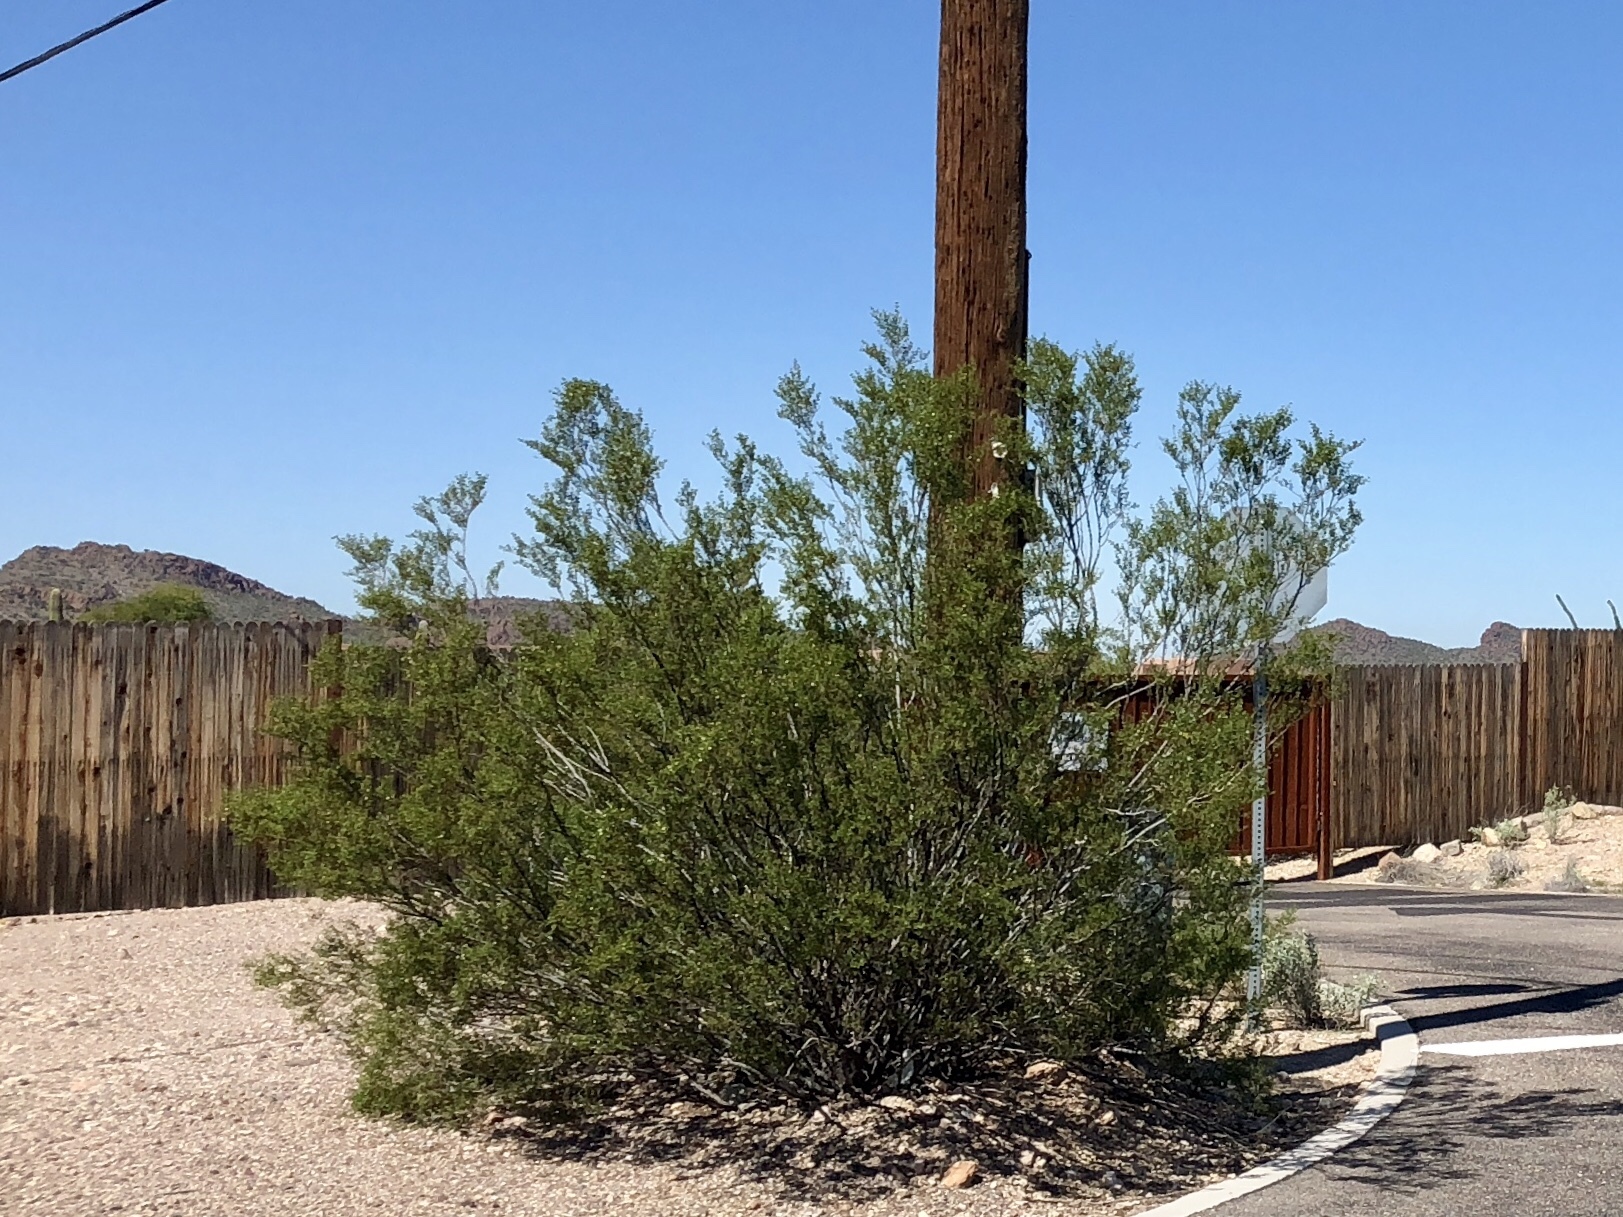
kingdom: Plantae
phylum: Tracheophyta
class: Magnoliopsida
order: Zygophyllales
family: Zygophyllaceae
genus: Larrea
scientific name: Larrea tridentata
